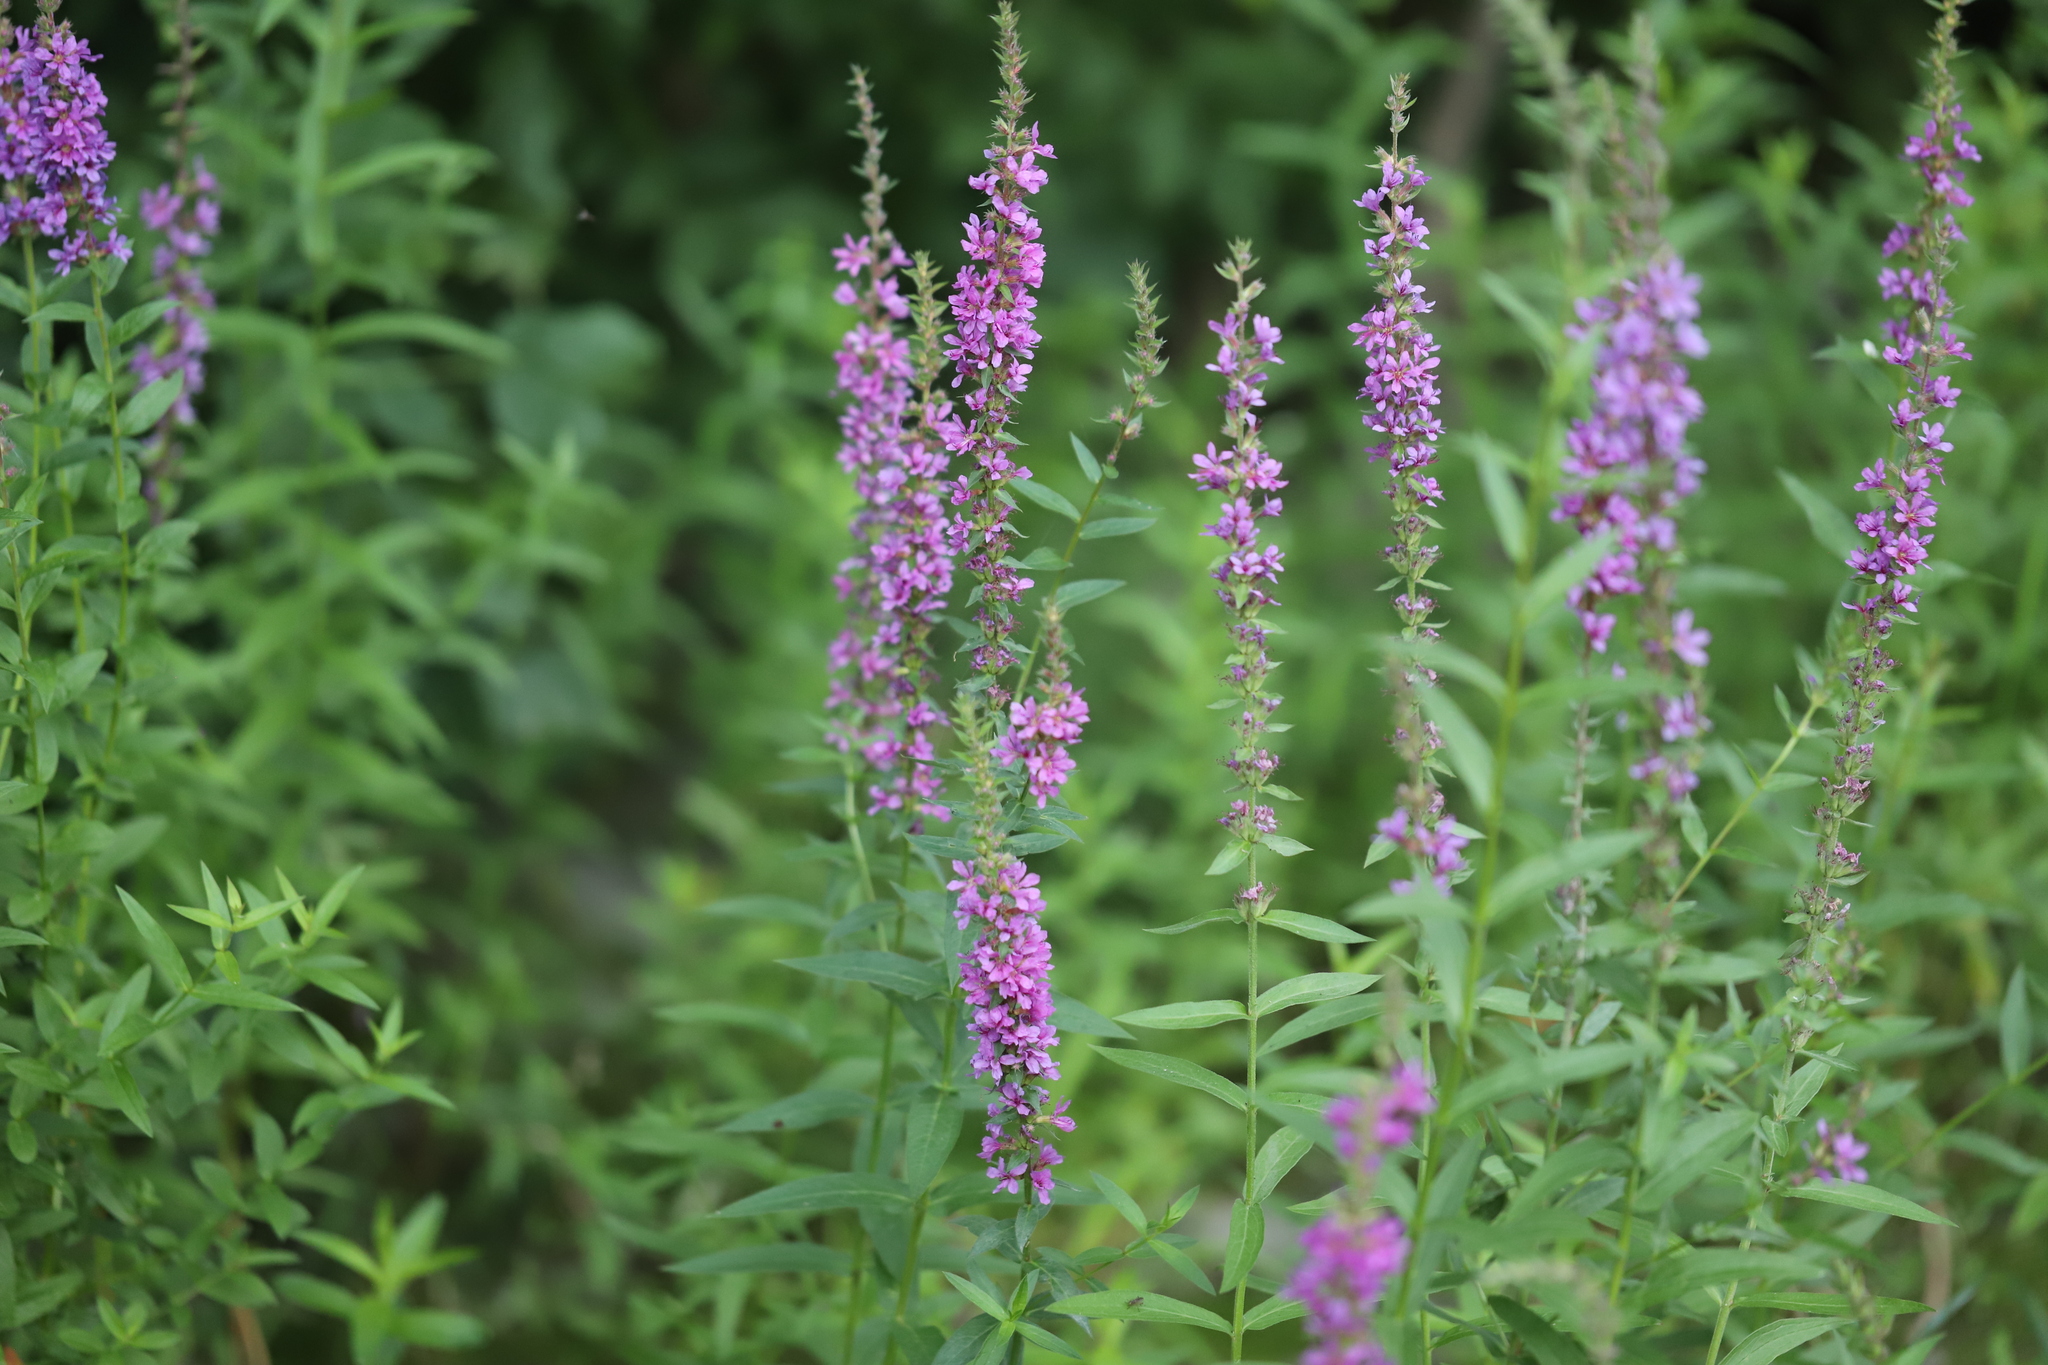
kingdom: Plantae
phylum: Tracheophyta
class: Magnoliopsida
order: Myrtales
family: Lythraceae
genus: Lythrum
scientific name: Lythrum salicaria
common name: Purple loosestrife
